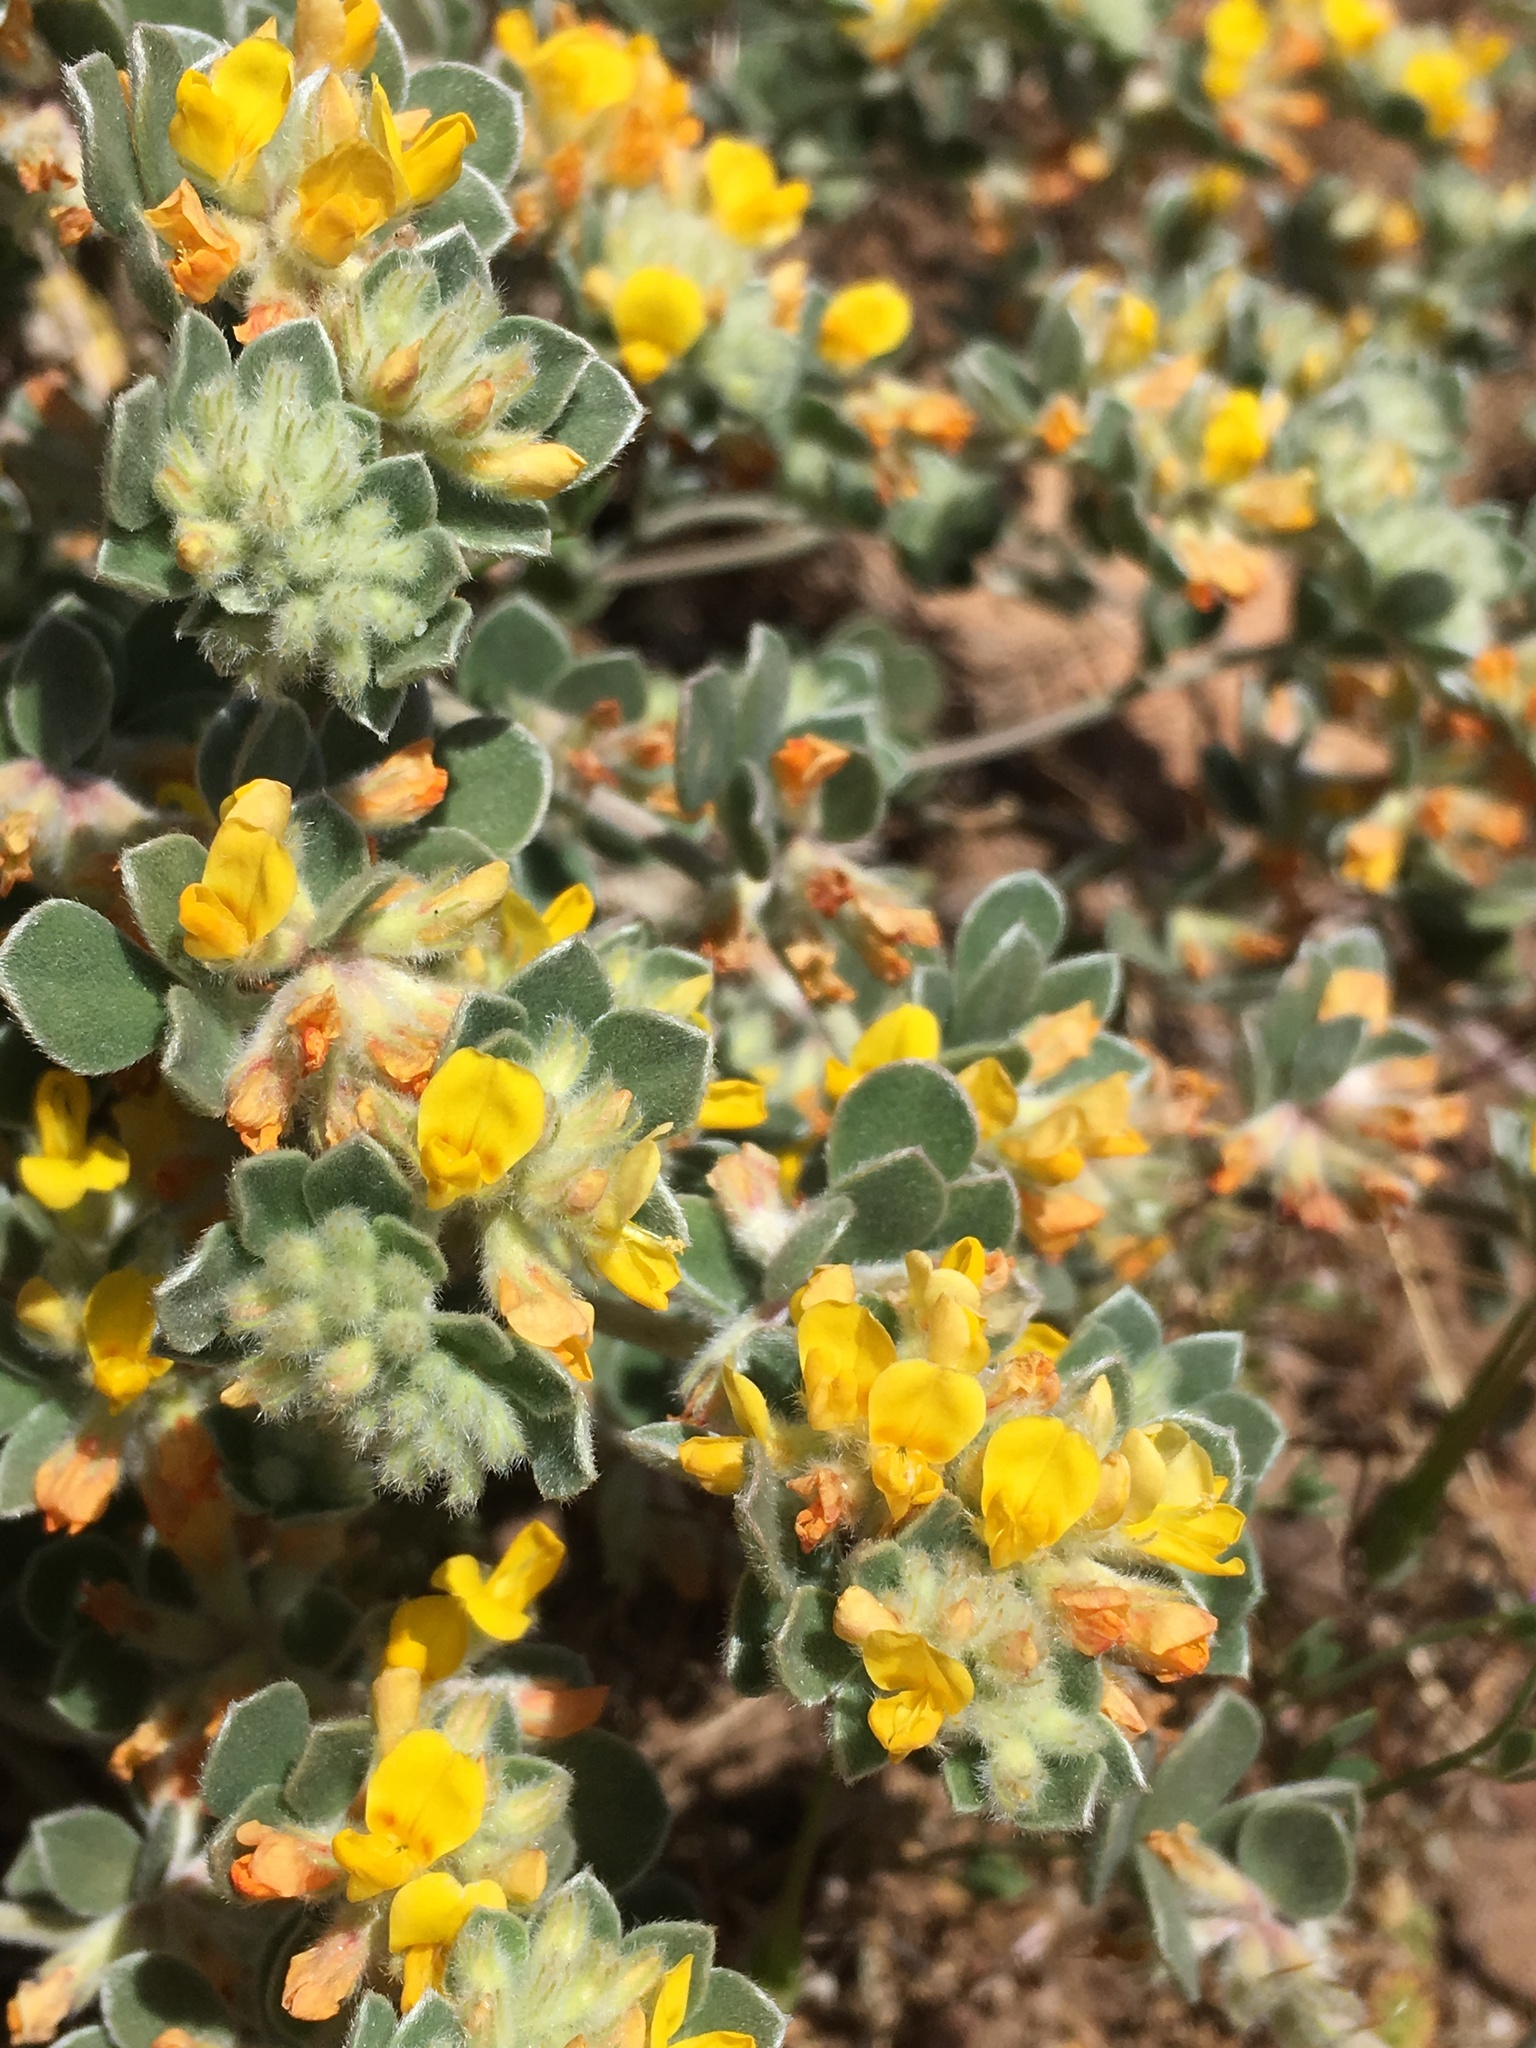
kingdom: Plantae
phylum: Tracheophyta
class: Magnoliopsida
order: Fabales
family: Fabaceae
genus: Acmispon
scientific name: Acmispon argophyllus
